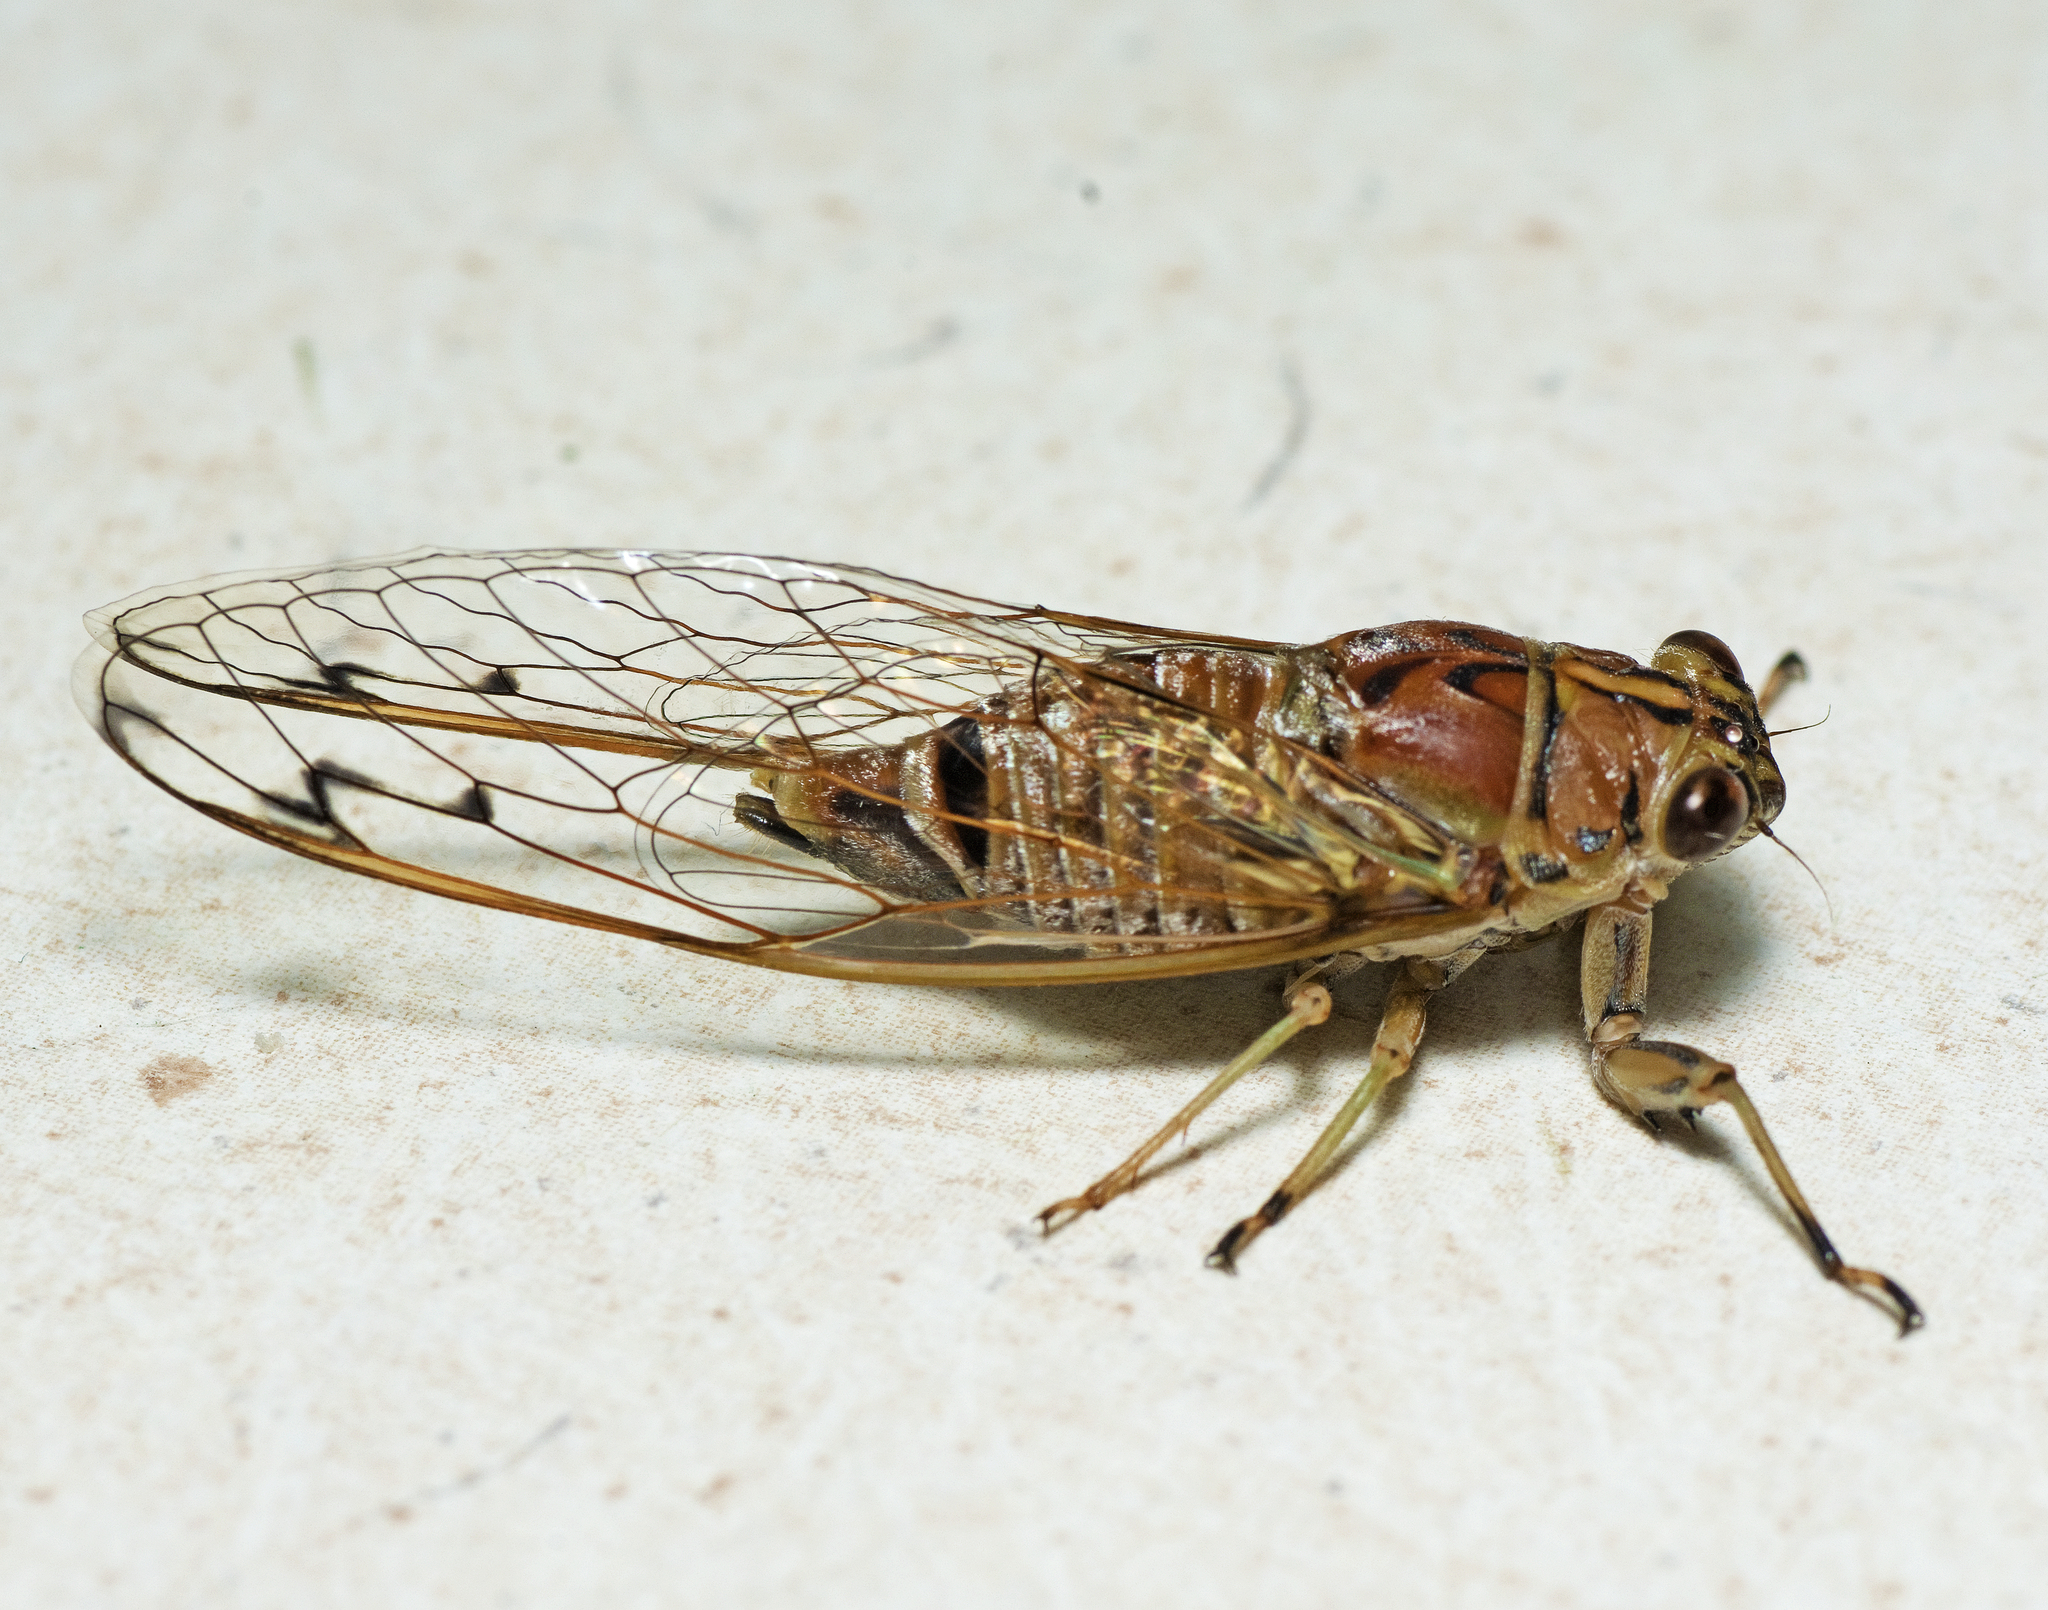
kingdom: Animalia
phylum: Arthropoda
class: Insecta
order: Hemiptera
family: Cicadidae
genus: Tamasa
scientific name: Tamasa burgessi
